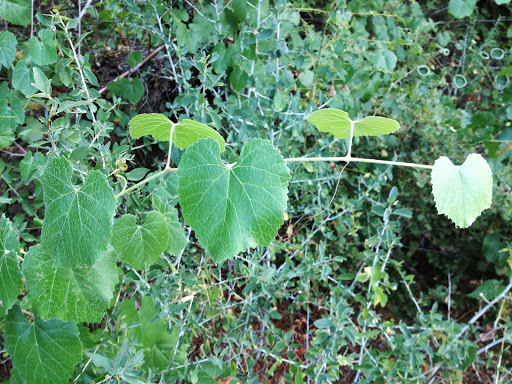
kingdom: Plantae
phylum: Tracheophyta
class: Magnoliopsida
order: Vitales
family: Vitaceae
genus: Vitis
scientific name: Vitis californica
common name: California wild grape
